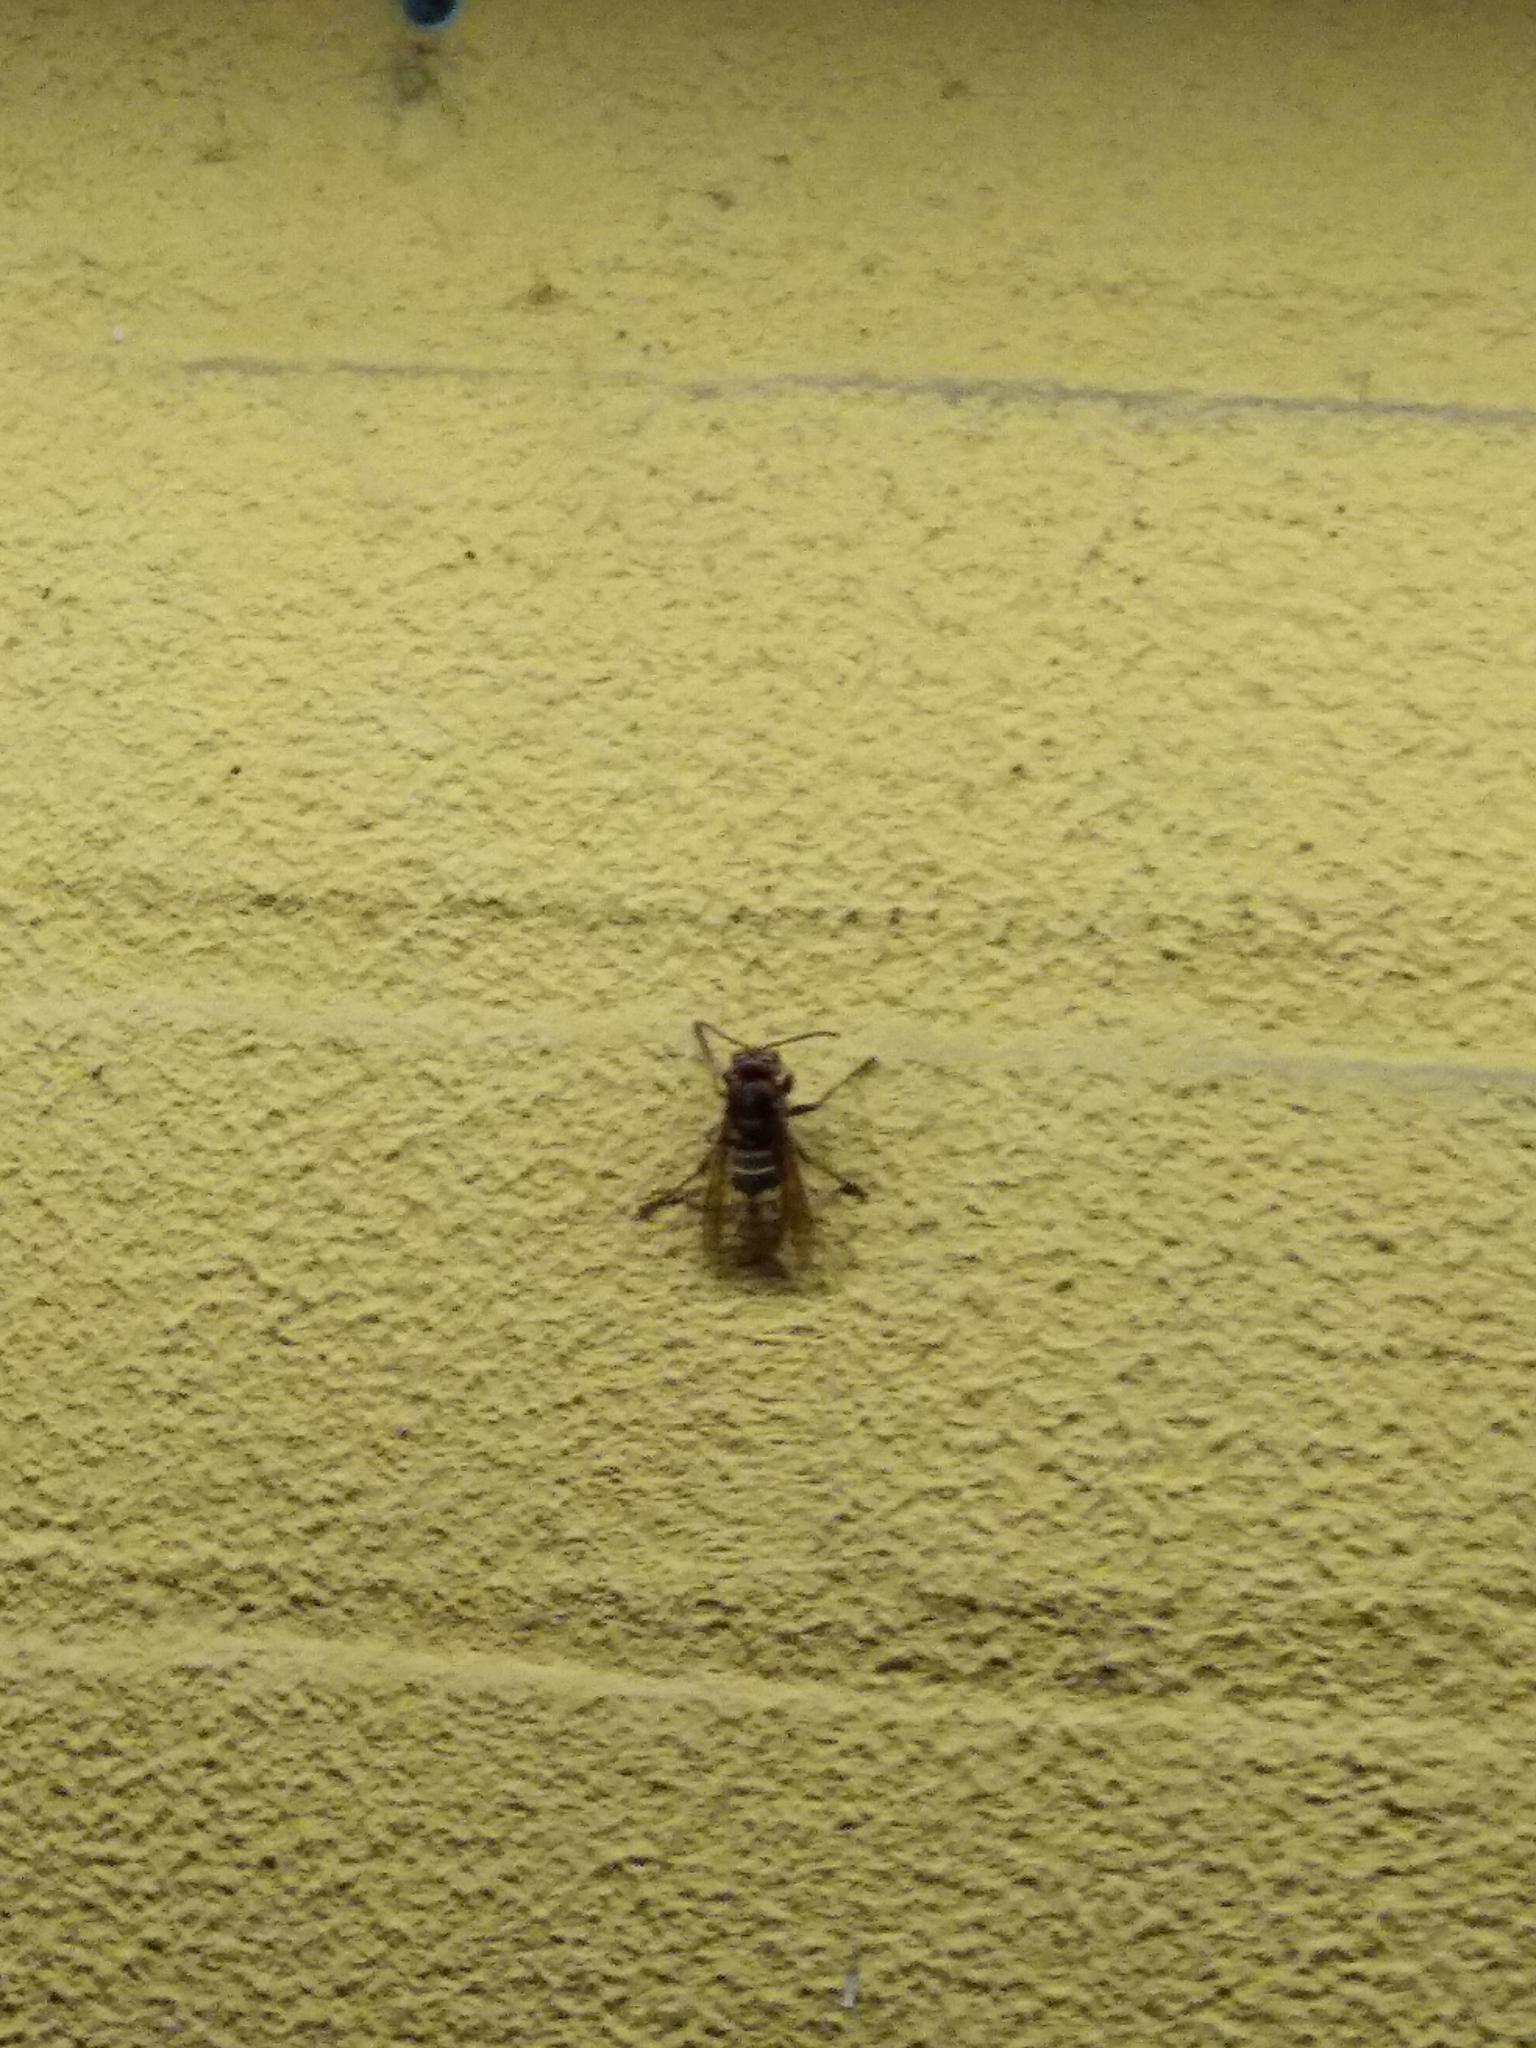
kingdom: Animalia
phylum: Arthropoda
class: Insecta
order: Hymenoptera
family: Vespidae
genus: Vespa
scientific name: Vespa crabro
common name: Hornet
